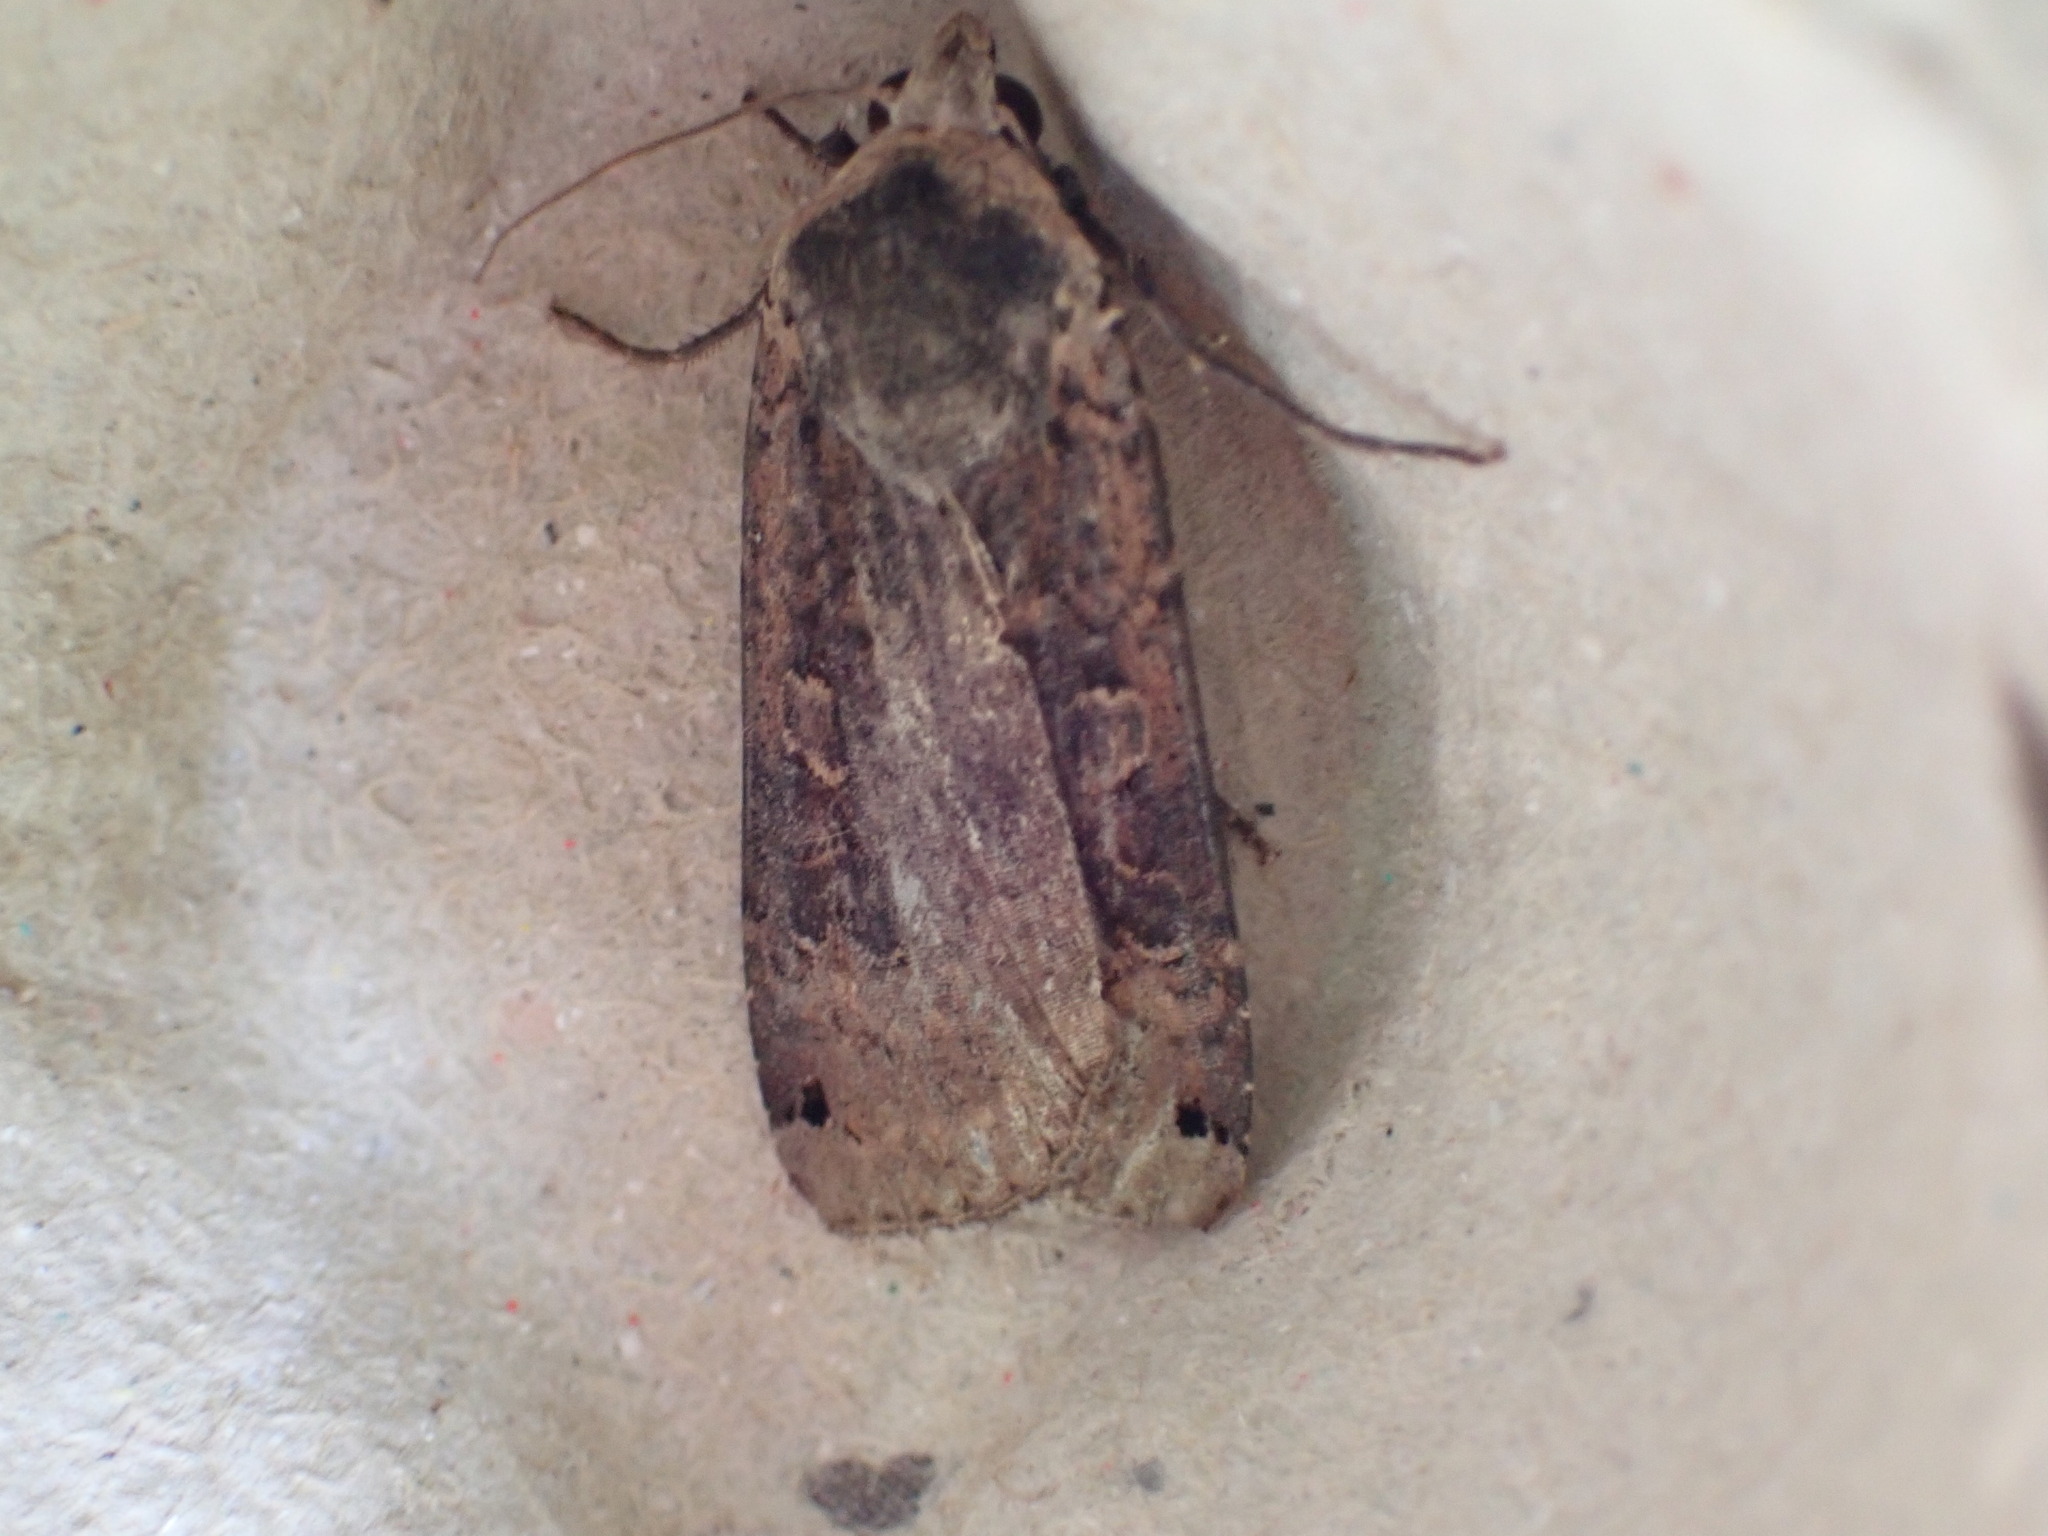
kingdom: Animalia
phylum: Arthropoda
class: Insecta
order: Lepidoptera
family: Noctuidae
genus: Noctua
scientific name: Noctua pronuba
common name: Large yellow underwing
